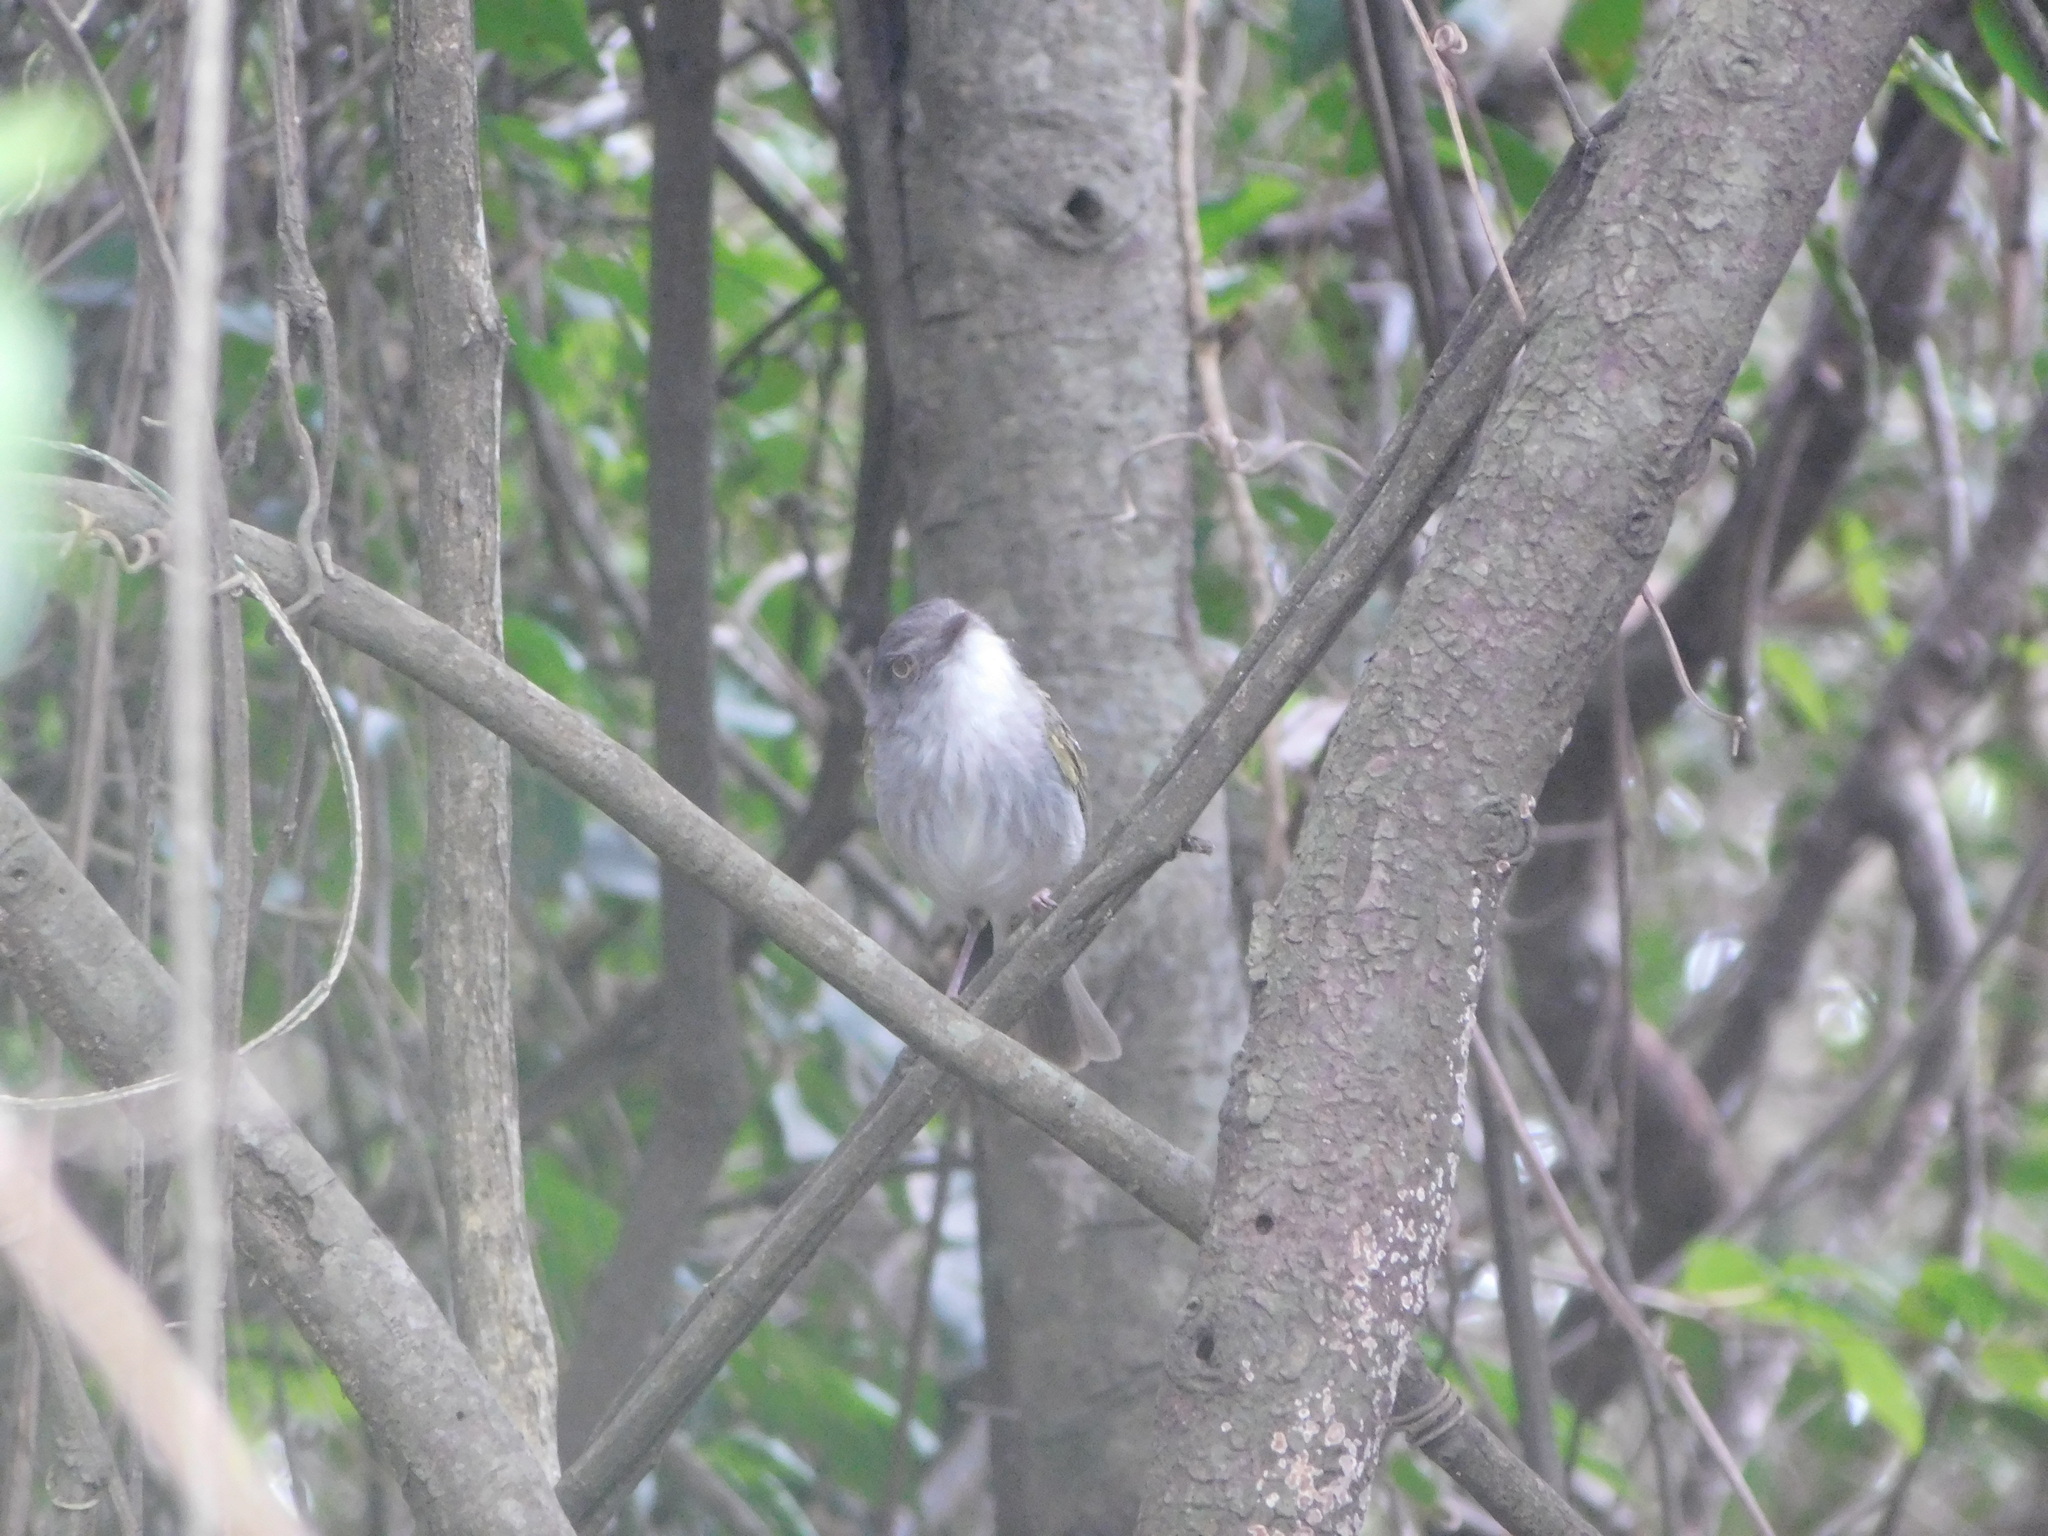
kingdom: Animalia
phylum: Chordata
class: Aves
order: Passeriformes
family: Tyrannidae
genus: Hemitriccus
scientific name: Hemitriccus margaritaceiventer
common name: Pearly-vented tody-tyrant
